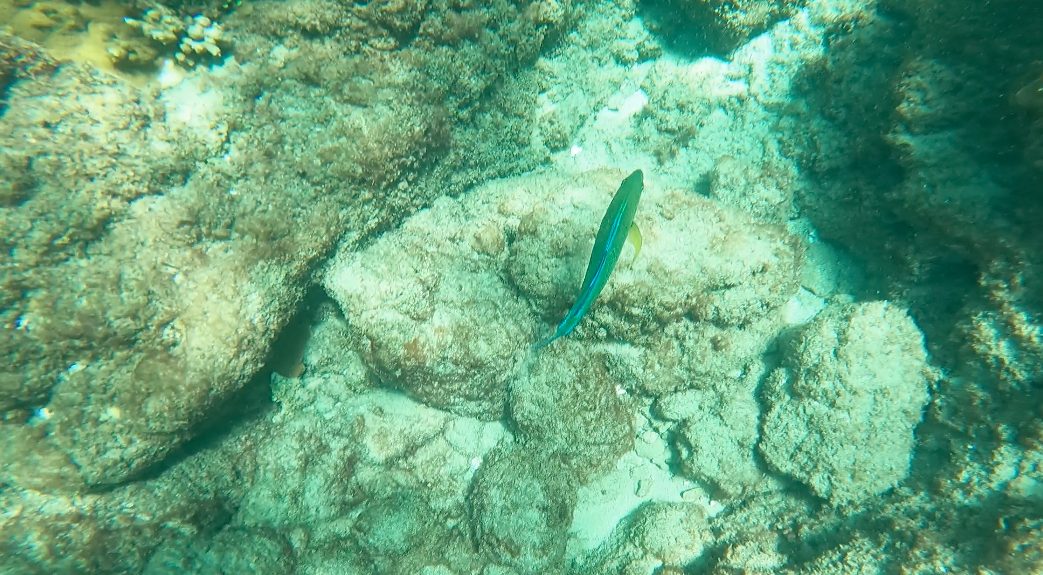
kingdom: Animalia
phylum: Chordata
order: Perciformes
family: Carangidae
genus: Caranx
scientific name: Caranx melampygus
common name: Bluefin trevally
